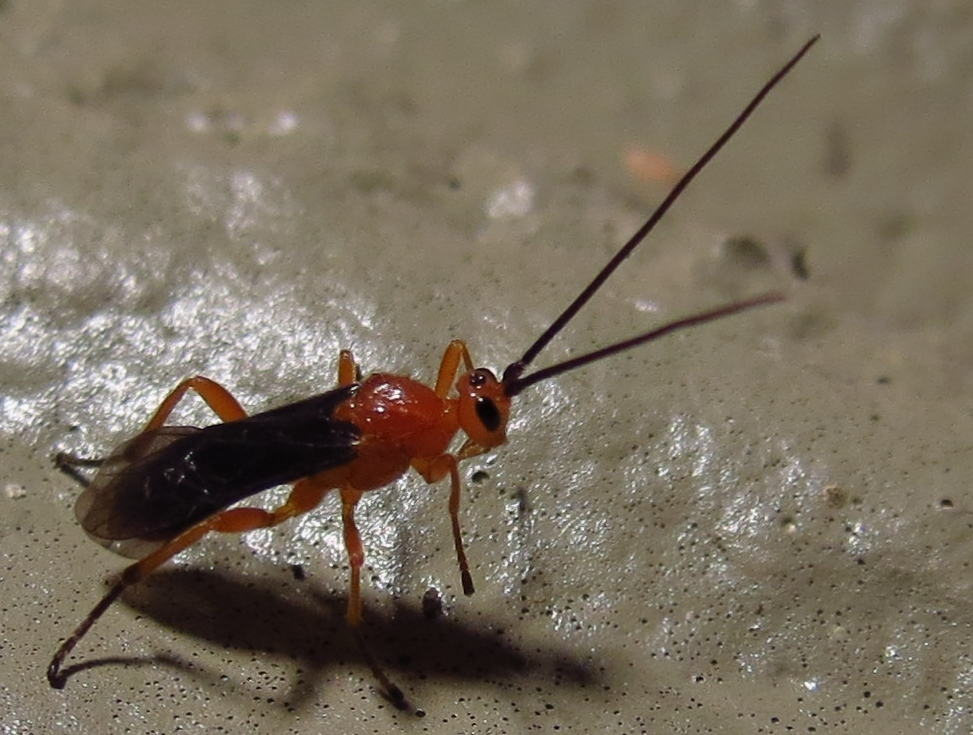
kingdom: Animalia
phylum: Arthropoda
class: Insecta
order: Hymenoptera
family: Braconidae
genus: Aleiodes
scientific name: Aleiodes politiceps
